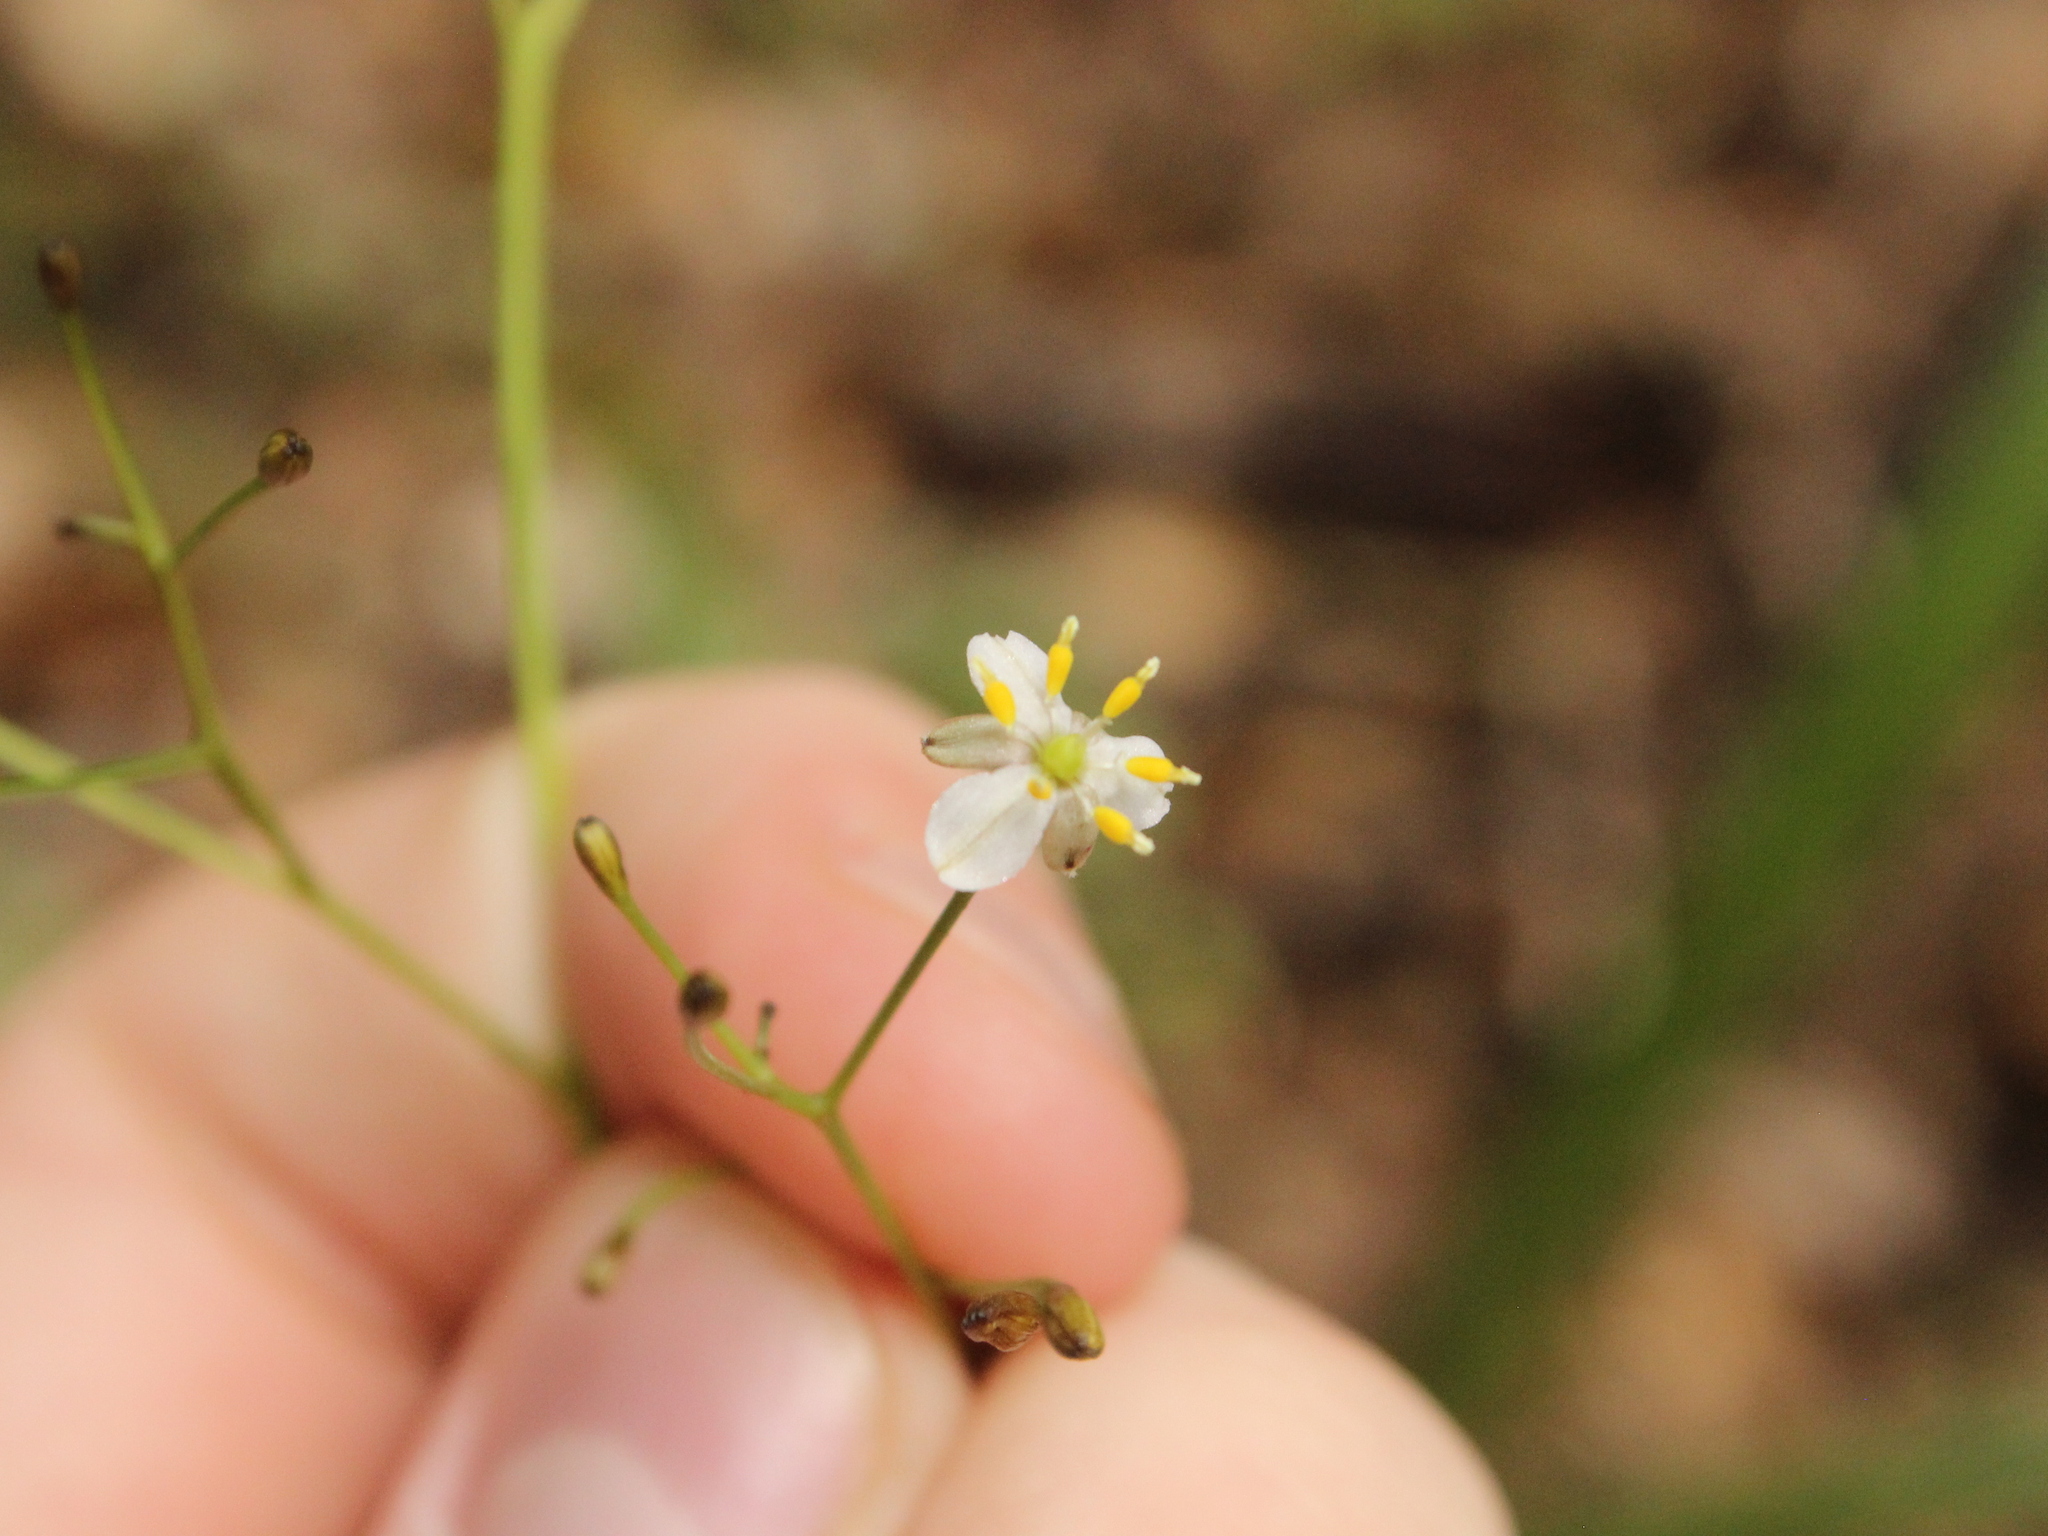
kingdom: Plantae
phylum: Tracheophyta
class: Liliopsida
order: Asparagales
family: Asphodelaceae
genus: Dianella
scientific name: Dianella nigra
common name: New zealand-blueberry
